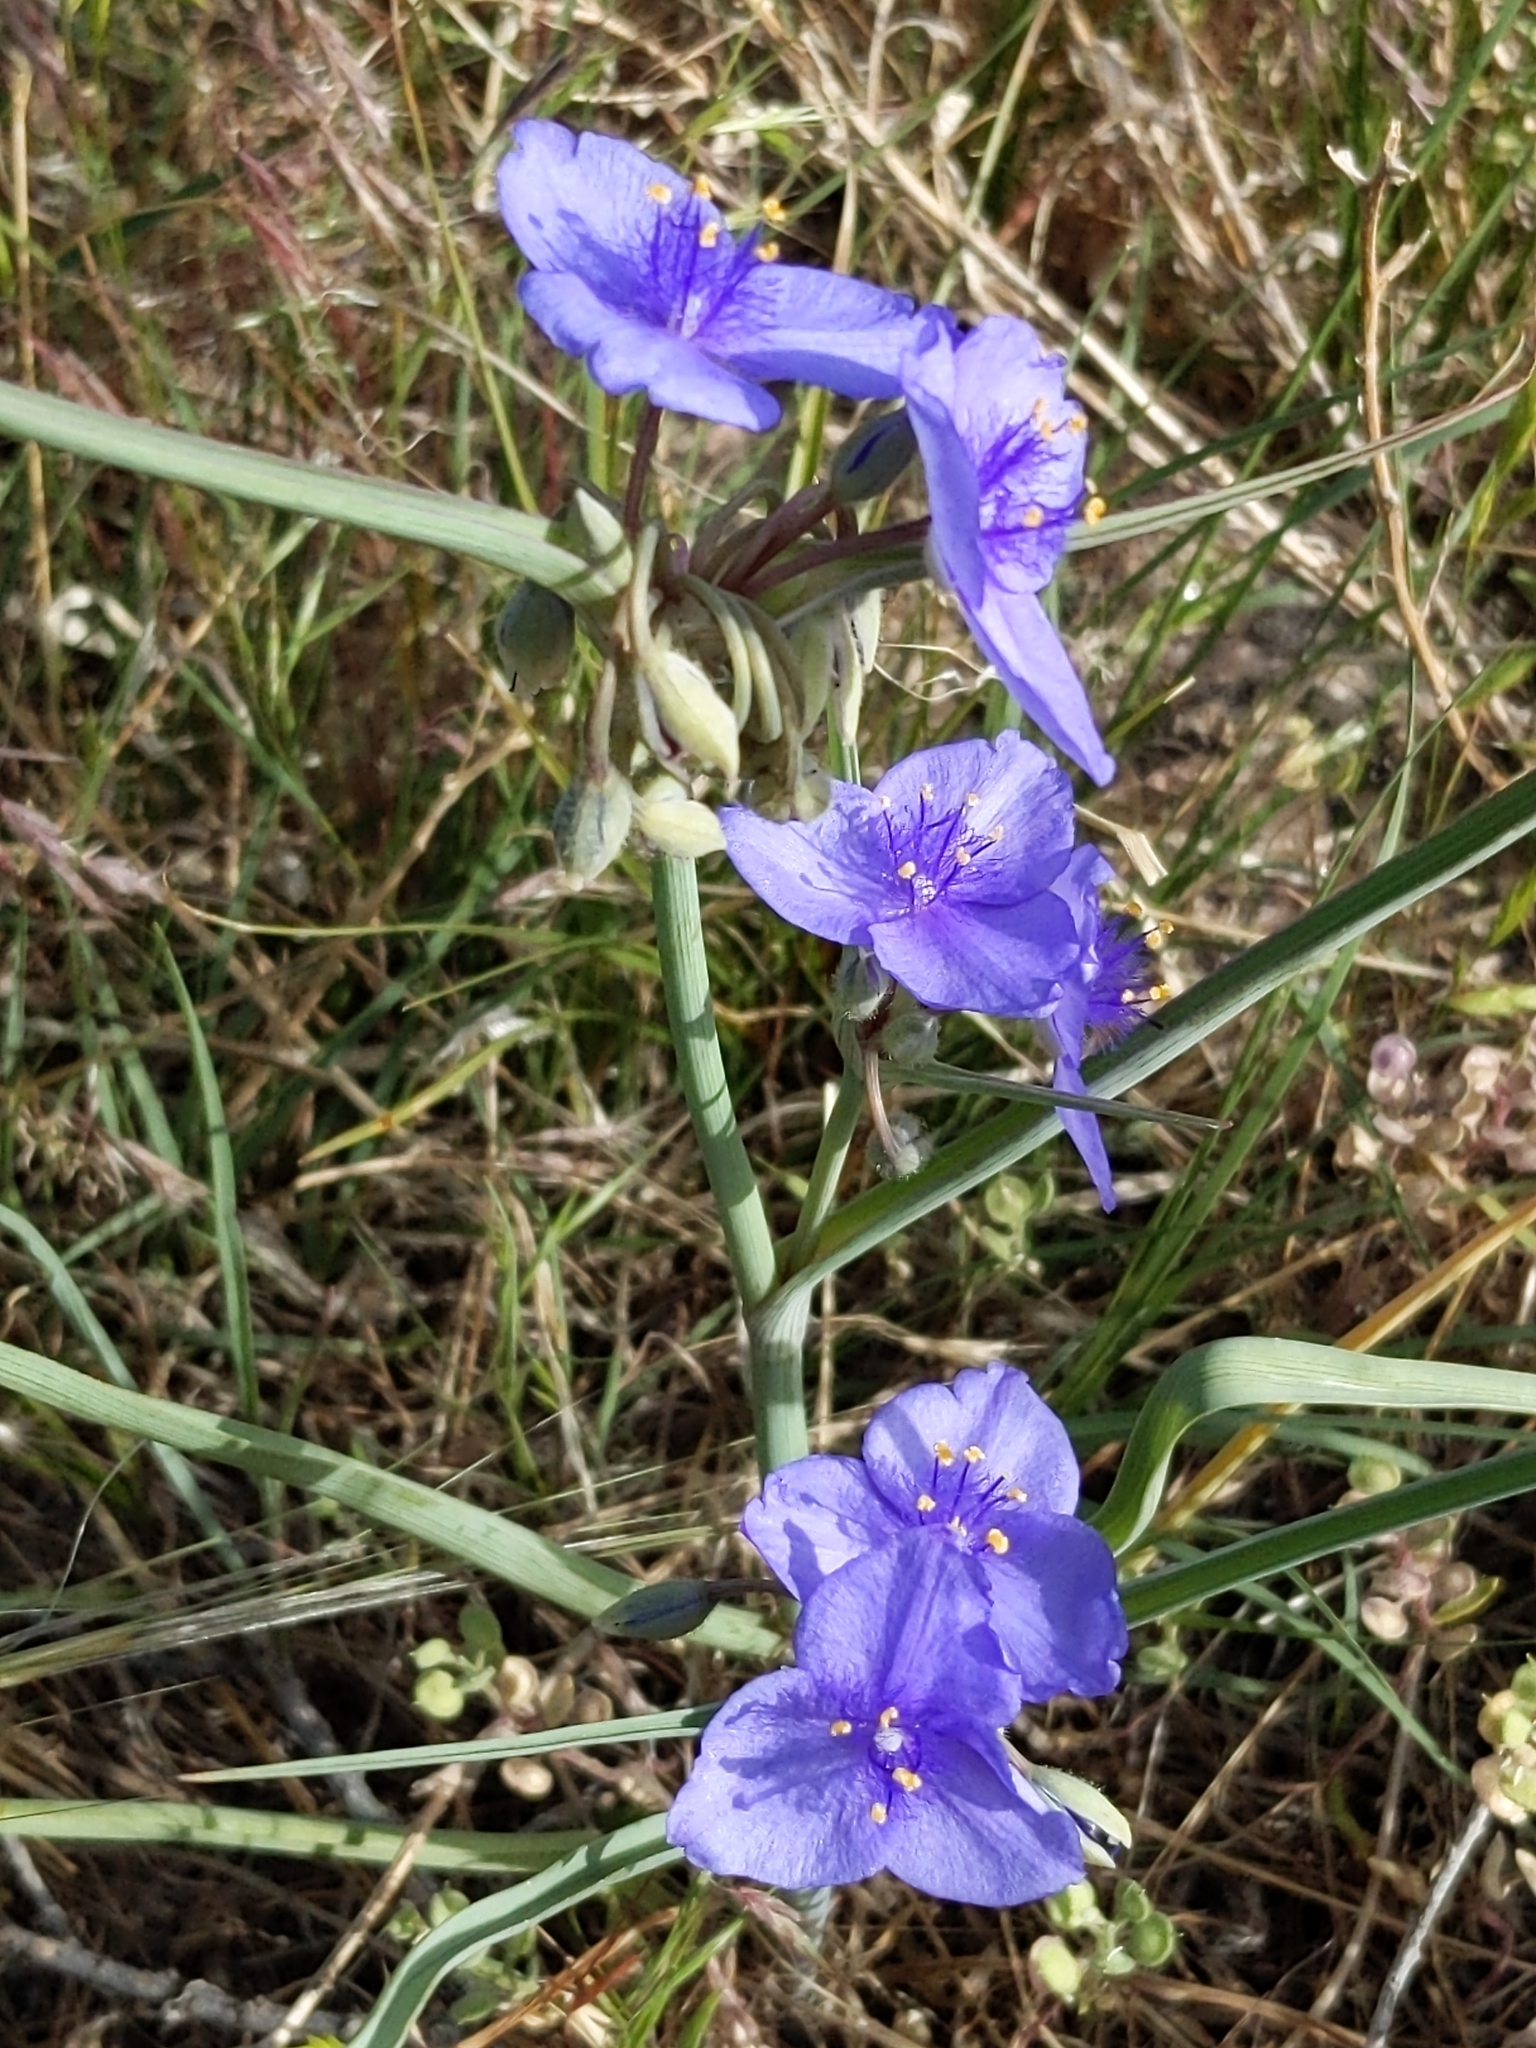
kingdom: Plantae
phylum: Tracheophyta
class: Liliopsida
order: Commelinales
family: Commelinaceae
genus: Tradescantia
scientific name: Tradescantia occidentalis
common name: Prairie spiderwort
